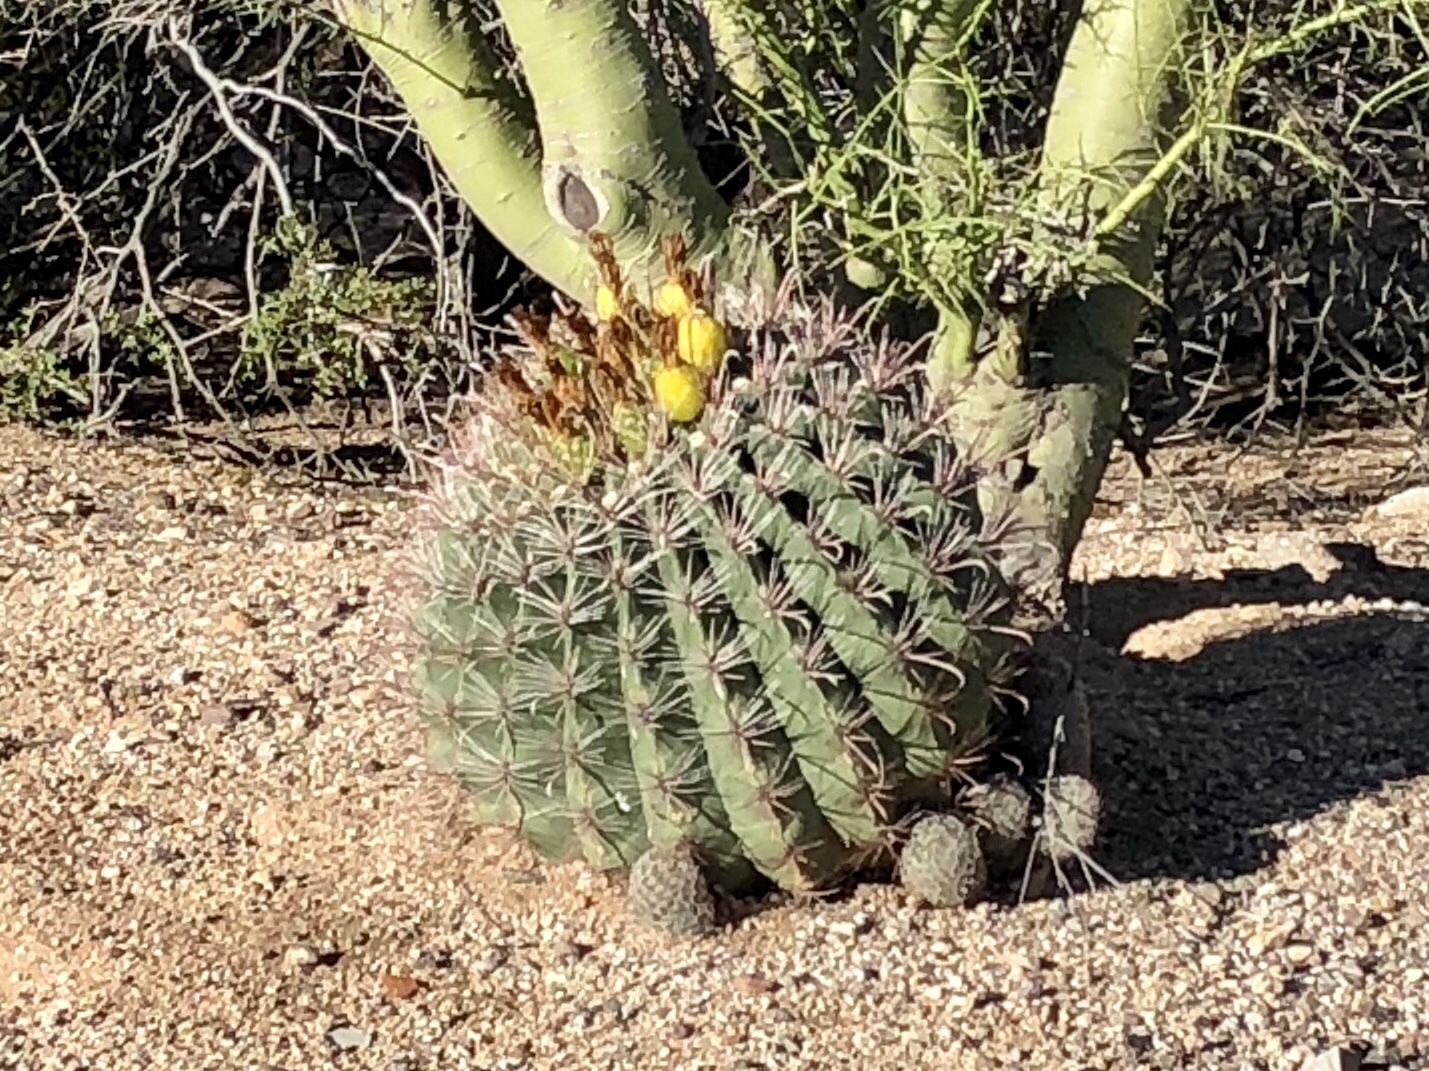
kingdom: Plantae
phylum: Tracheophyta
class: Magnoliopsida
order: Caryophyllales
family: Cactaceae
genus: Ferocactus
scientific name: Ferocactus wislizeni
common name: Candy barrel cactus
